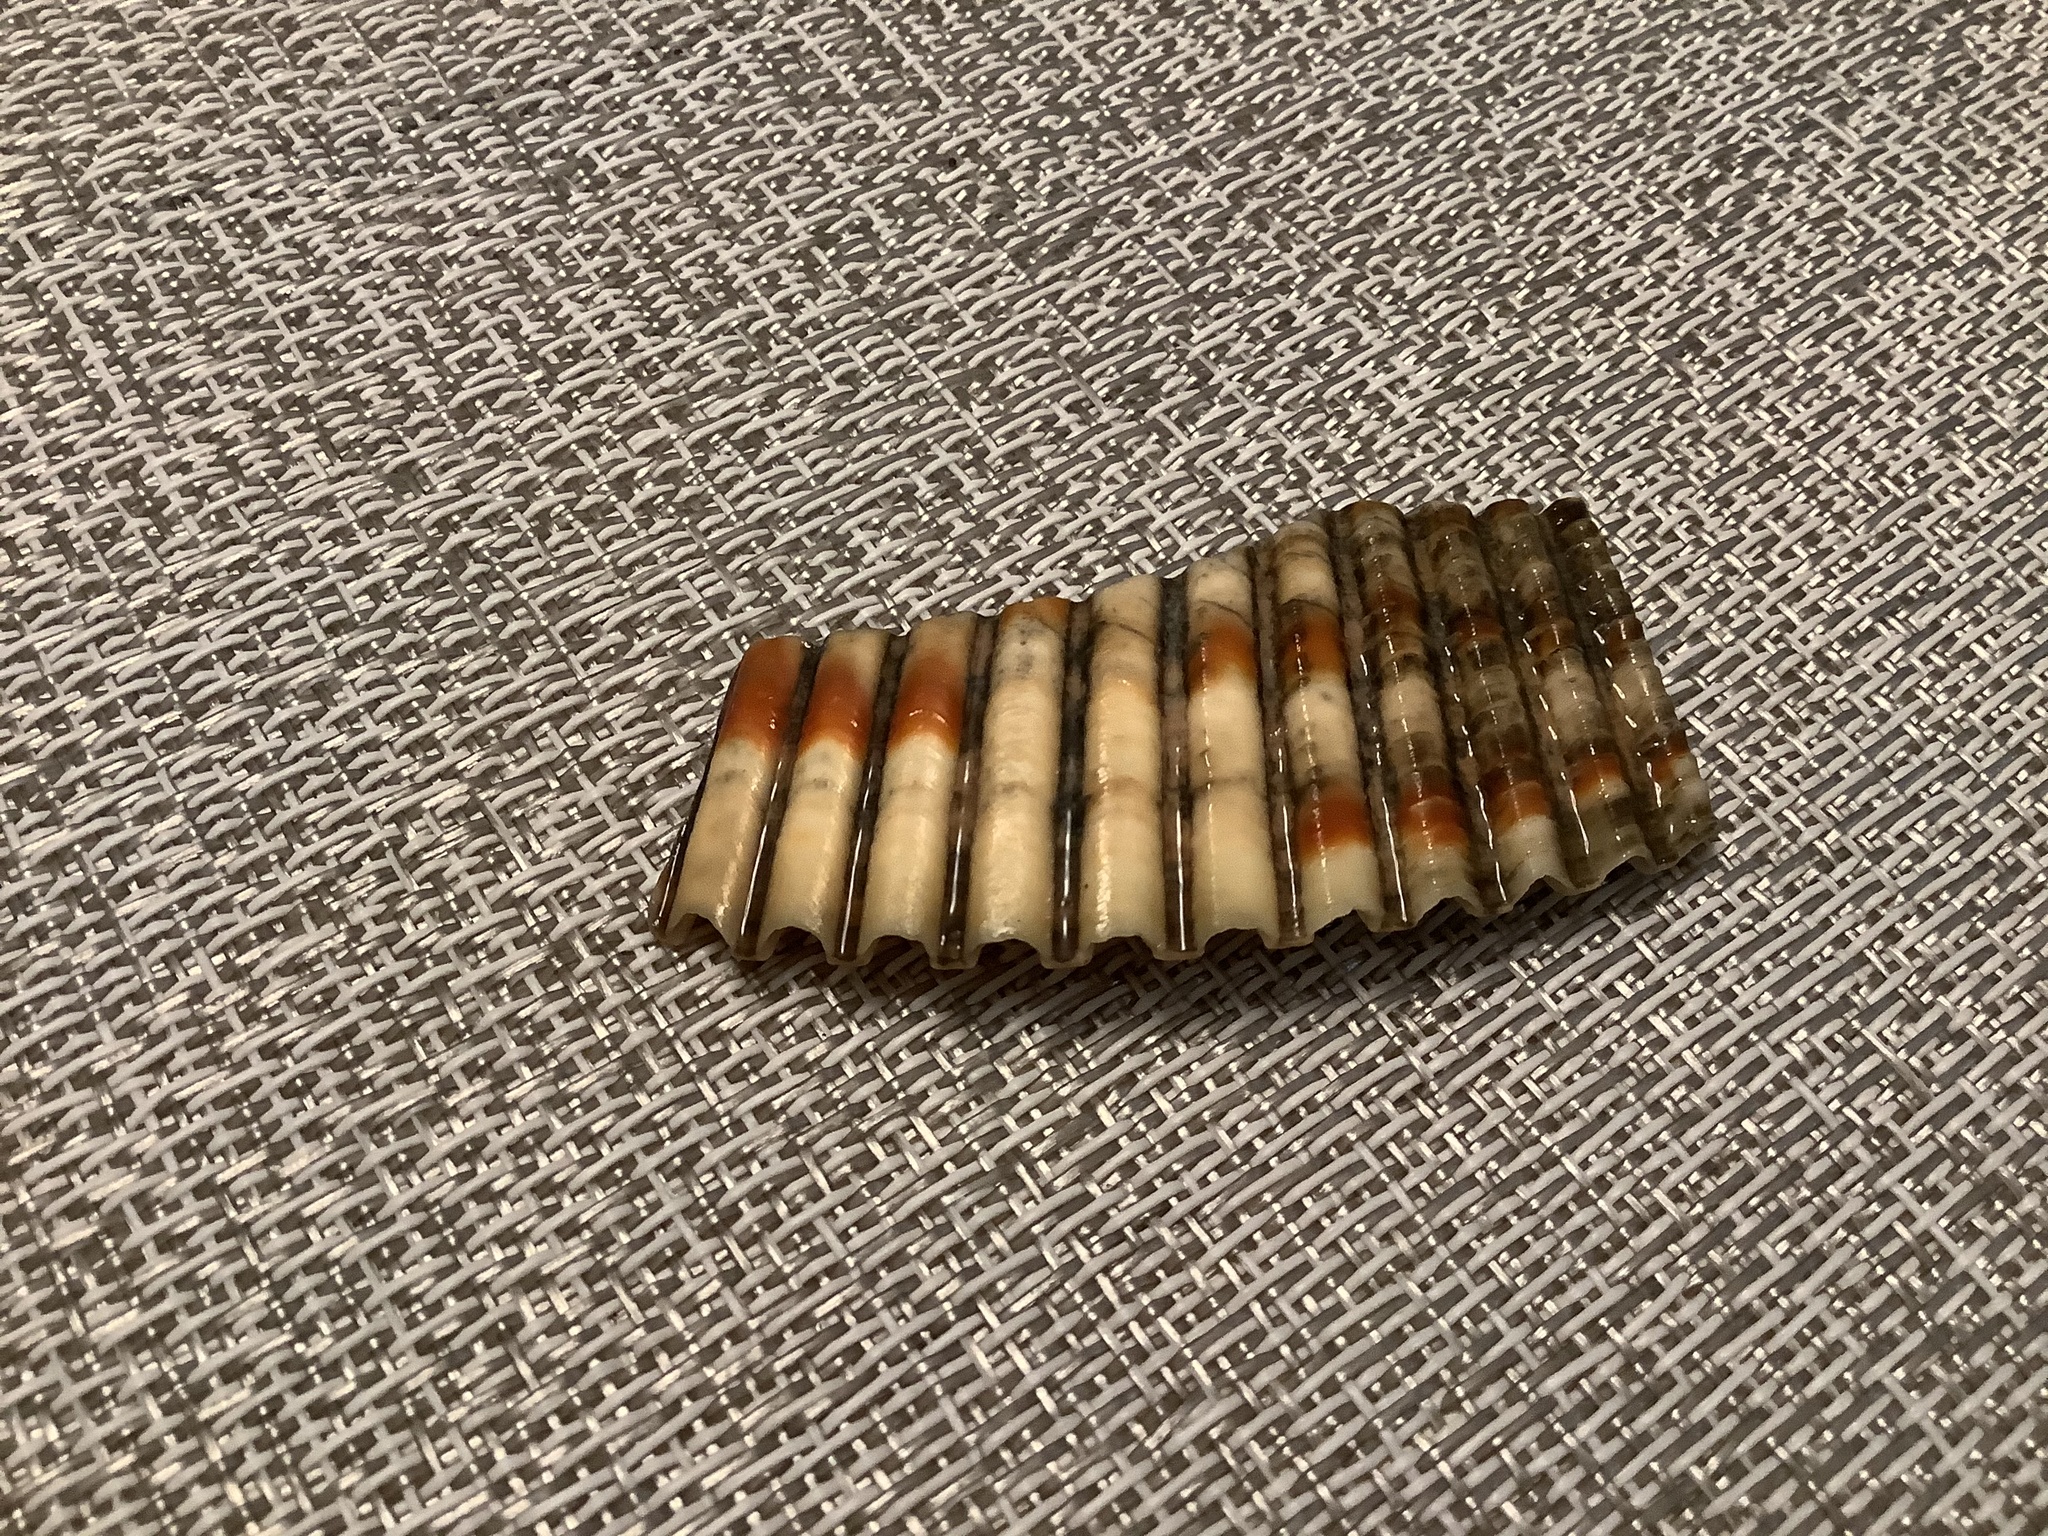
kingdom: Animalia
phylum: Mollusca
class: Bivalvia
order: Cardiida
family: Cardiidae
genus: Dinocardium
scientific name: Dinocardium robustum
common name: Atlantic giant cockle
